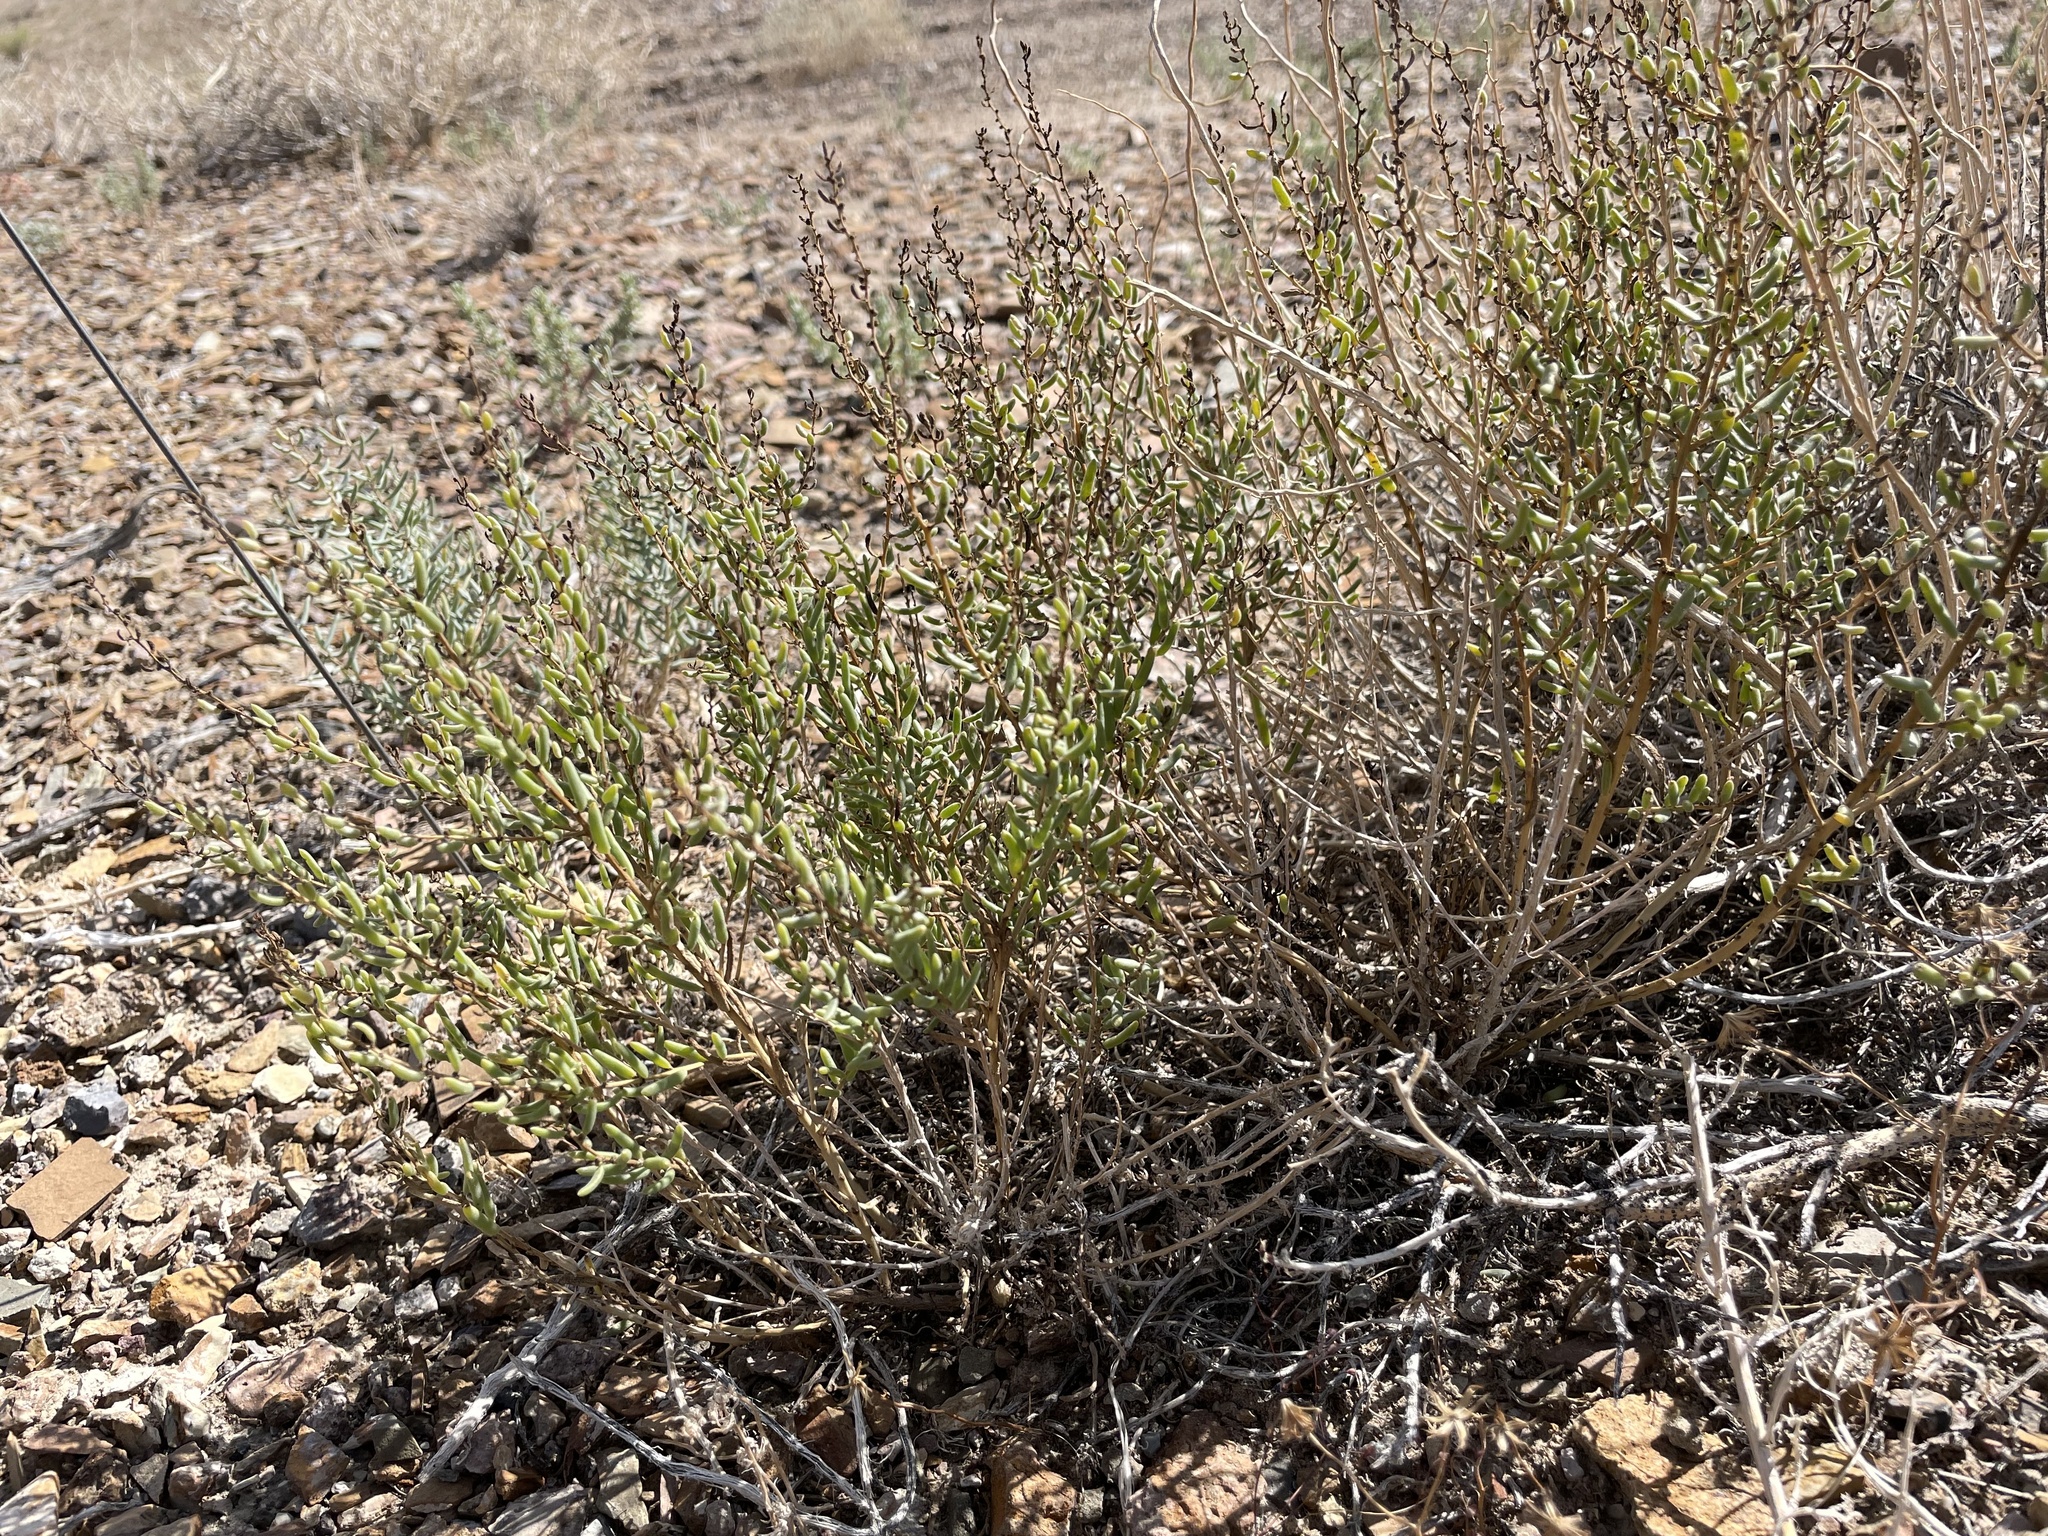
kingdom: Plantae
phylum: Tracheophyta
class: Magnoliopsida
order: Caryophyllales
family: Amaranthaceae
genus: Suaeda
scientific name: Suaeda nigra
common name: Bush seepweed
